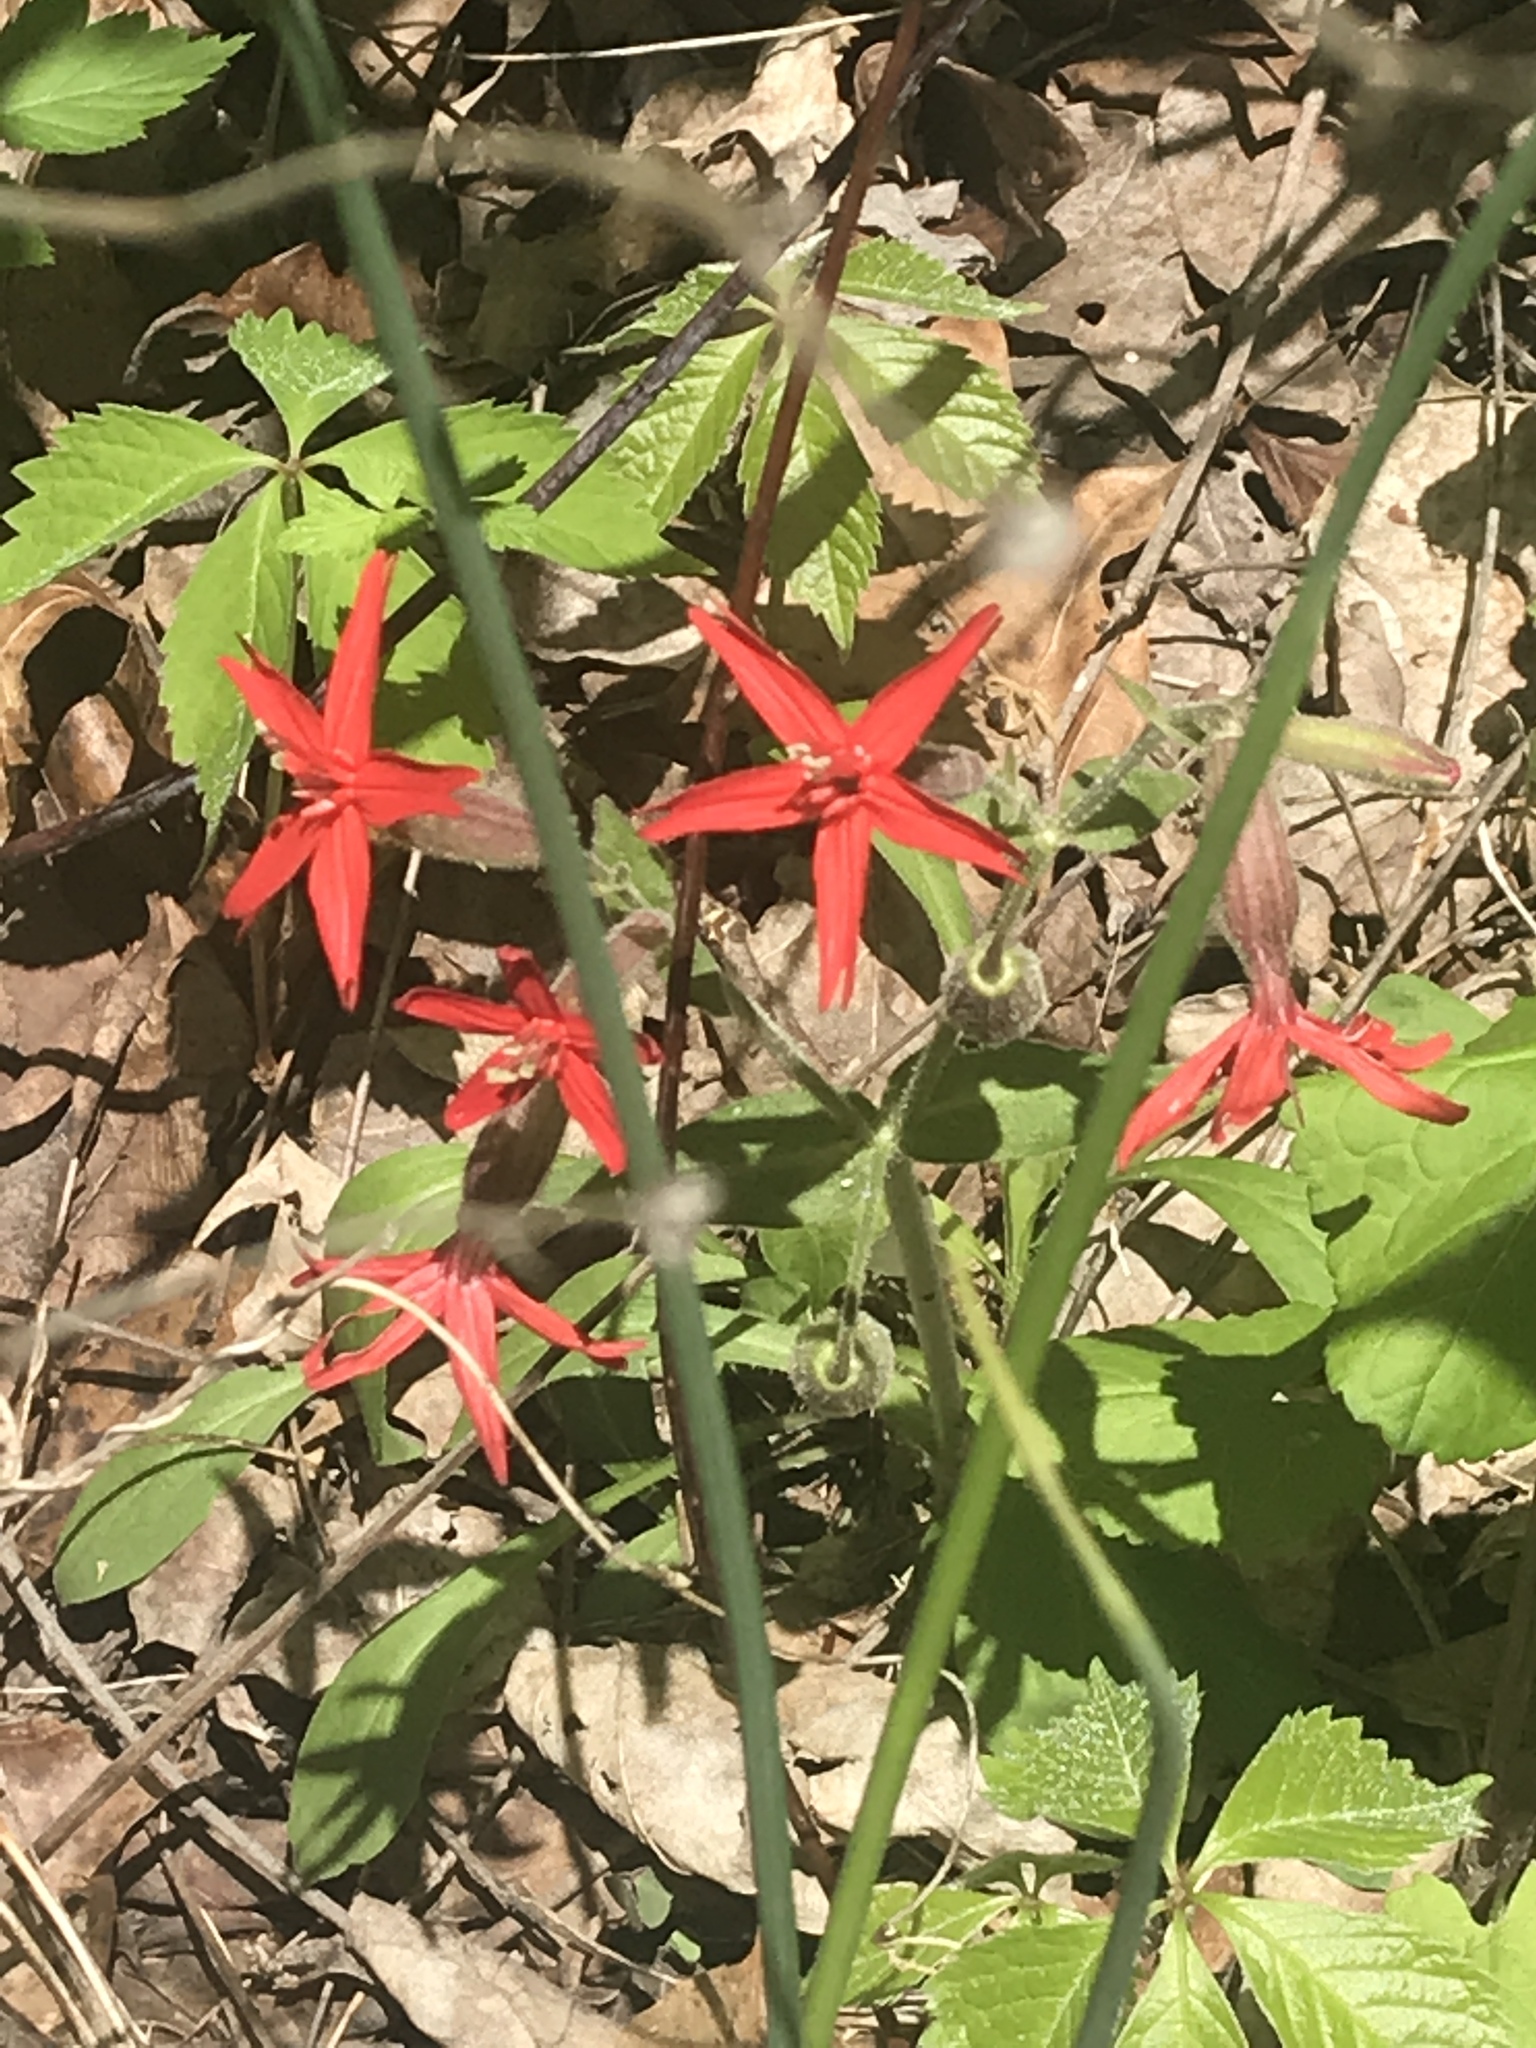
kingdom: Plantae
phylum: Tracheophyta
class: Magnoliopsida
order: Caryophyllales
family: Caryophyllaceae
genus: Silene
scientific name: Silene virginica
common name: Fire-pink
